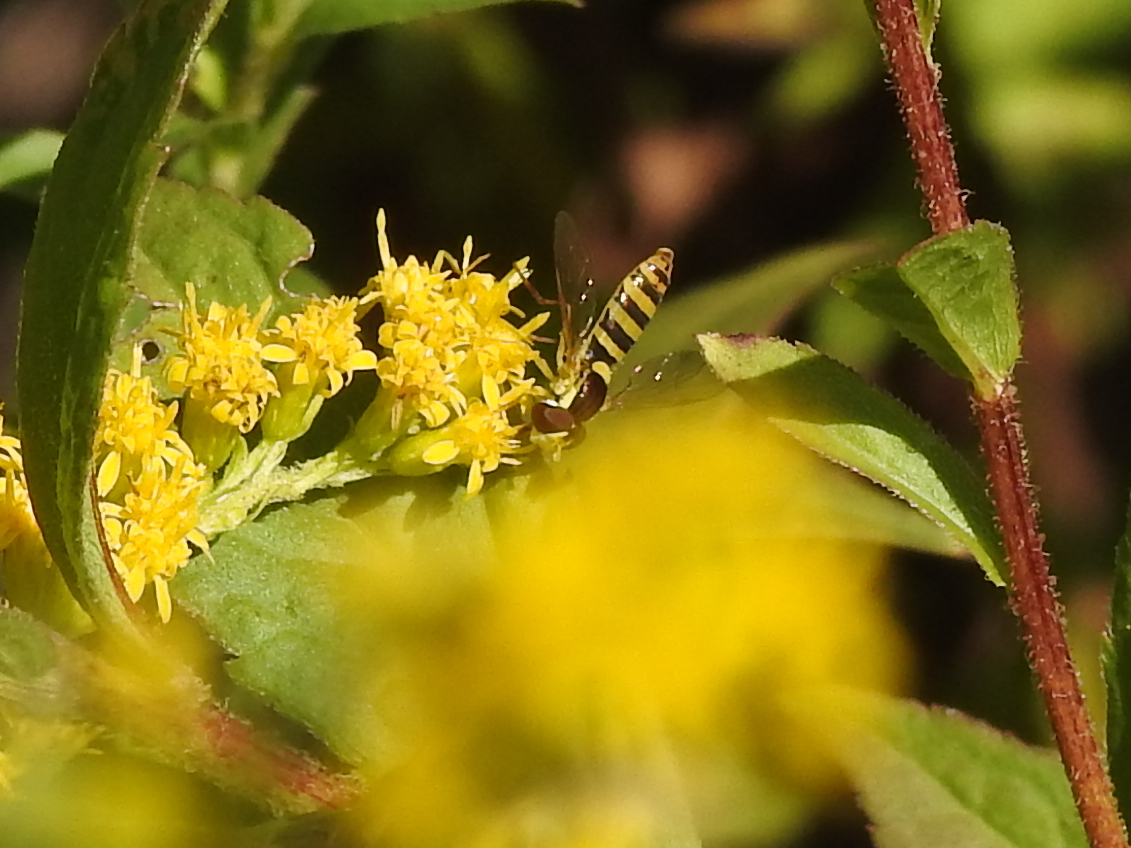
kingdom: Animalia
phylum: Arthropoda
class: Insecta
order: Diptera
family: Syrphidae
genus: Sphaerophoria
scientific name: Sphaerophoria
